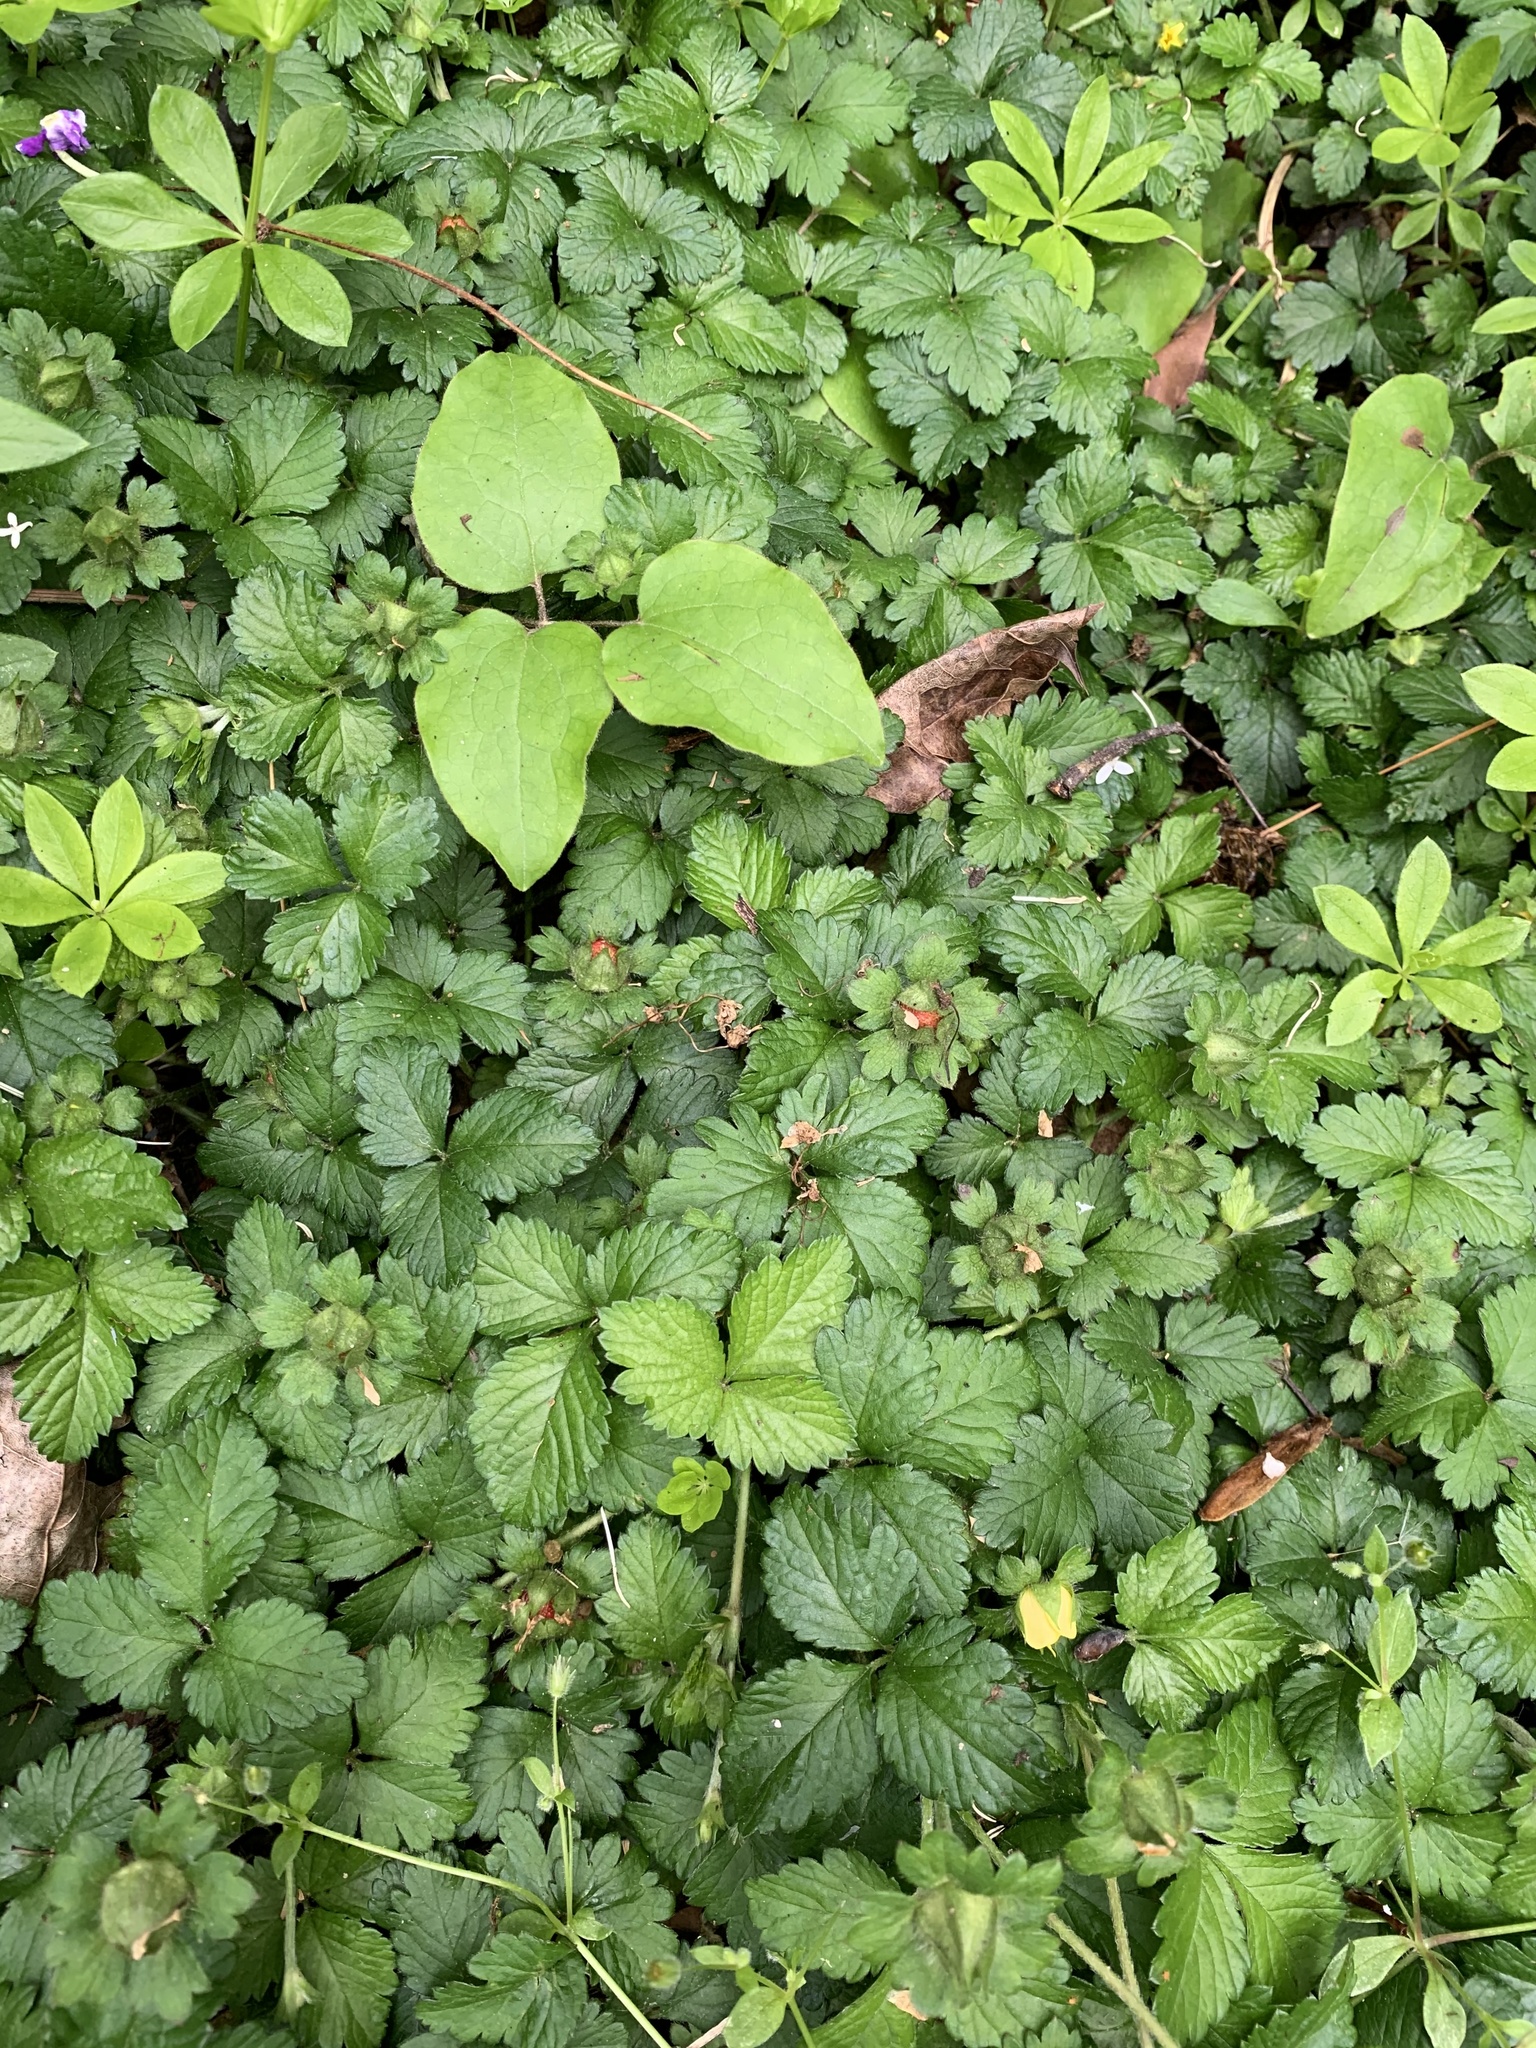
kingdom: Plantae
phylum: Tracheophyta
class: Magnoliopsida
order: Rosales
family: Rosaceae
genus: Potentilla
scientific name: Potentilla indica
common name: Yellow-flowered strawberry
